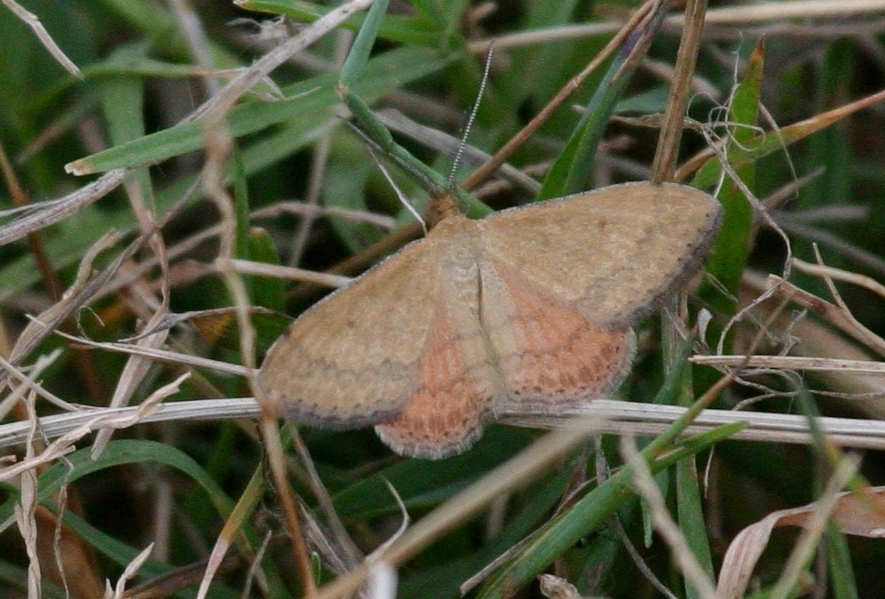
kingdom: Animalia
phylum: Arthropoda
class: Insecta
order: Lepidoptera
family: Geometridae
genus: Scopula
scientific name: Scopula rubraria
